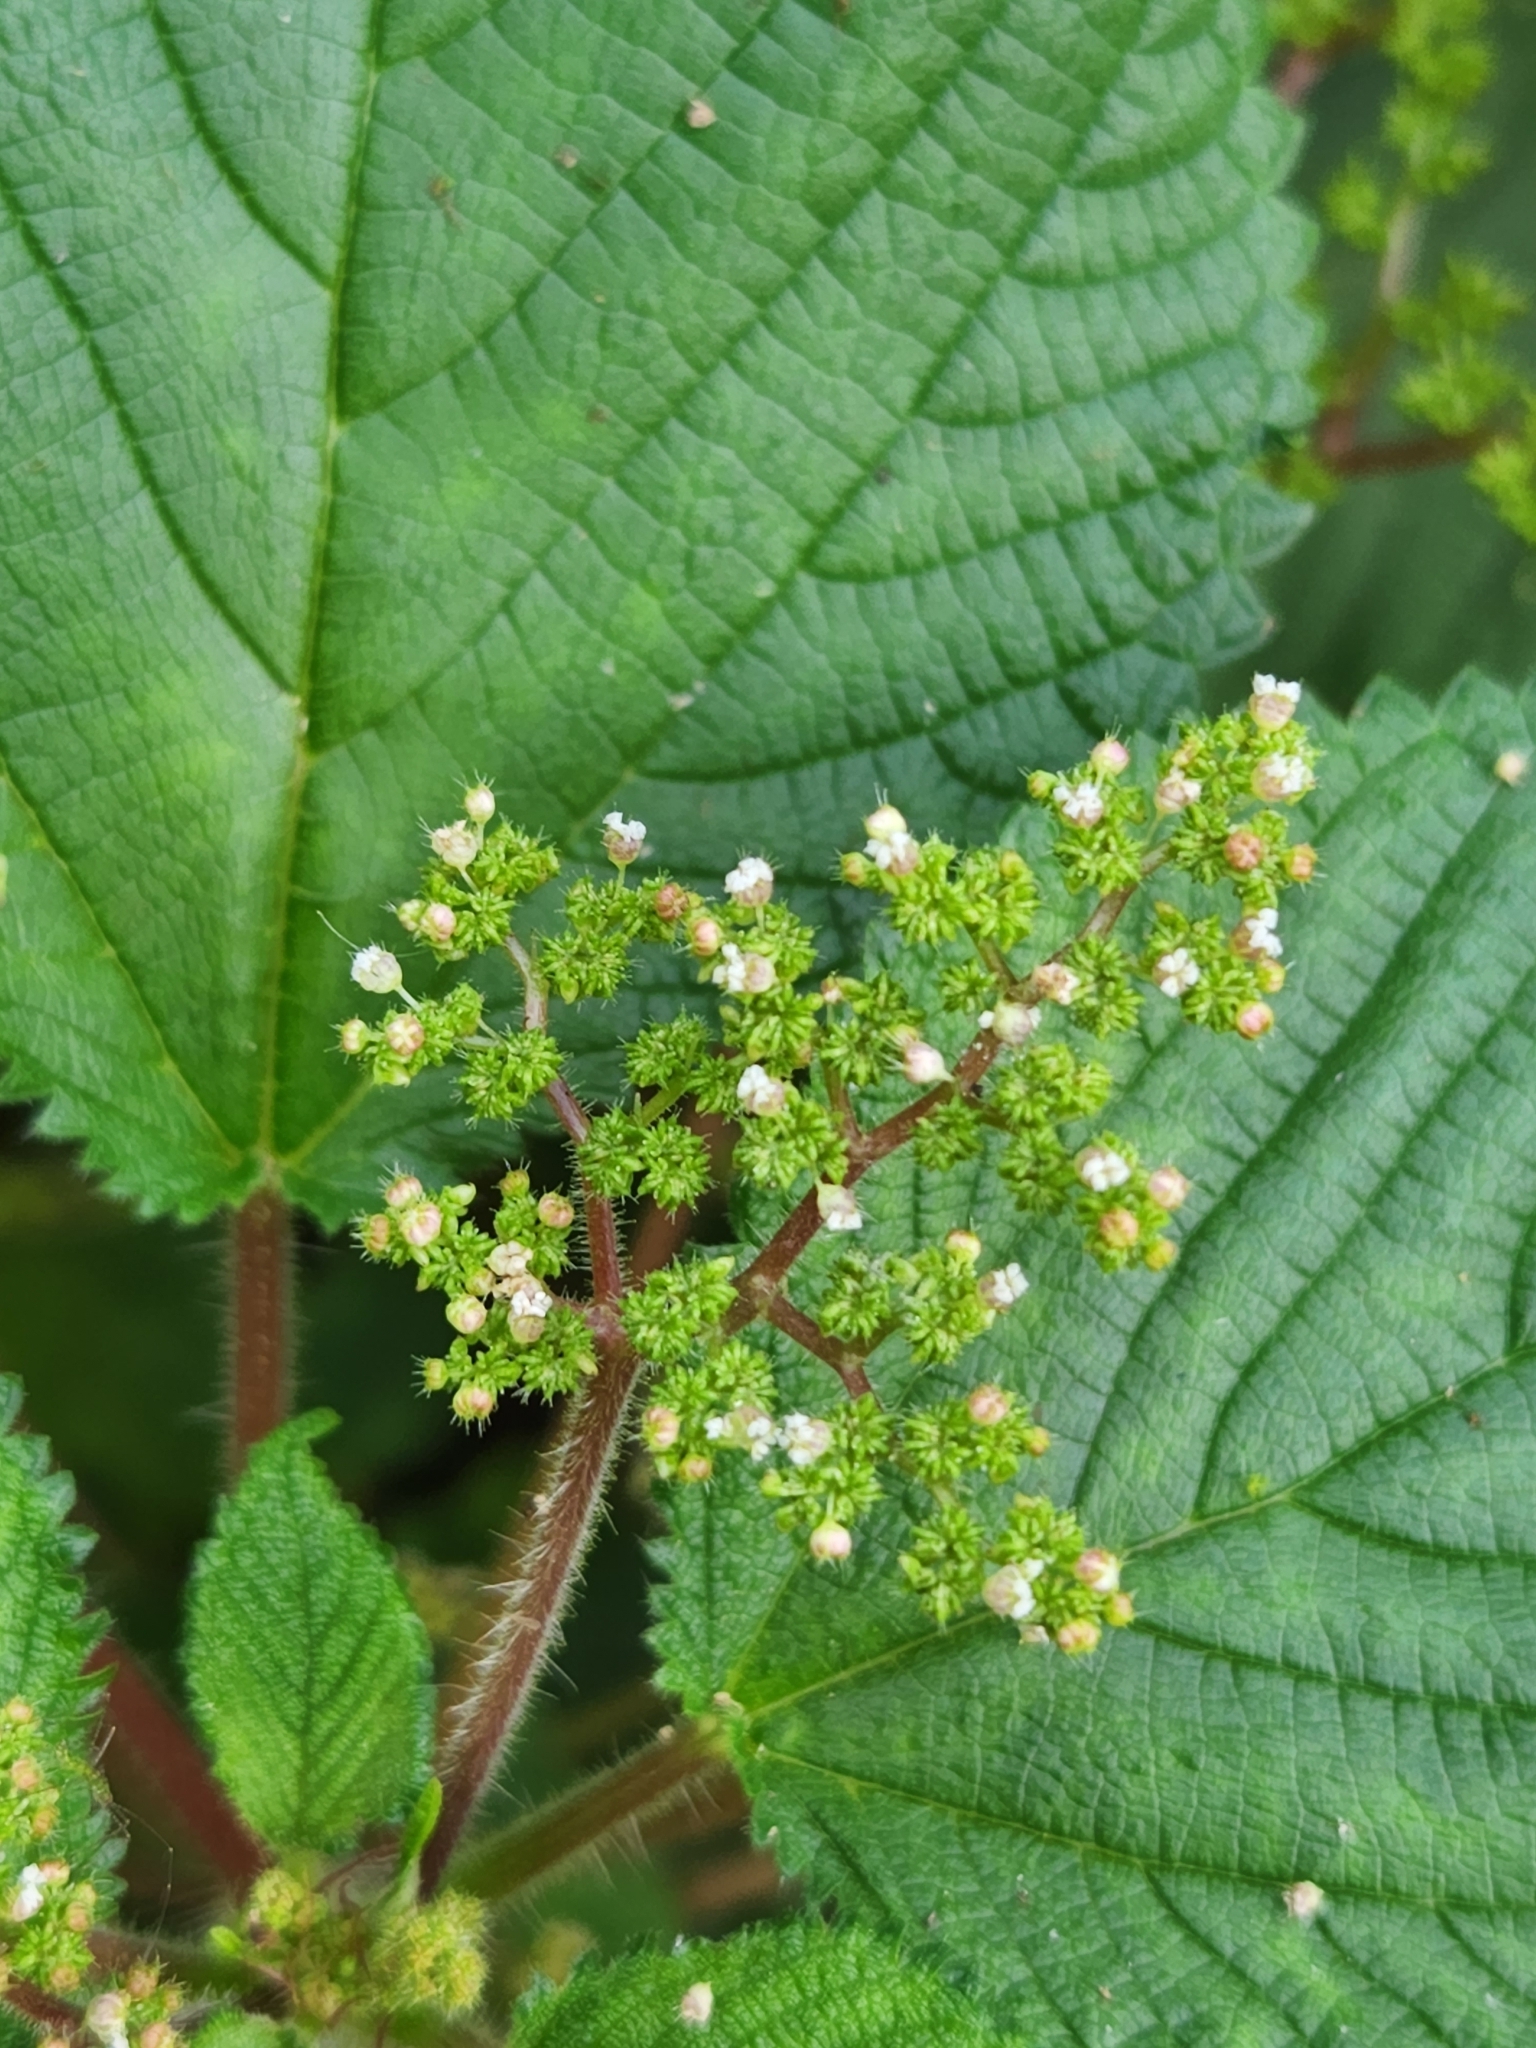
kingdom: Plantae
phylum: Tracheophyta
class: Magnoliopsida
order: Rosales
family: Urticaceae
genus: Laportea
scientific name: Laportea aestuans
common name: West indian woodnettle
